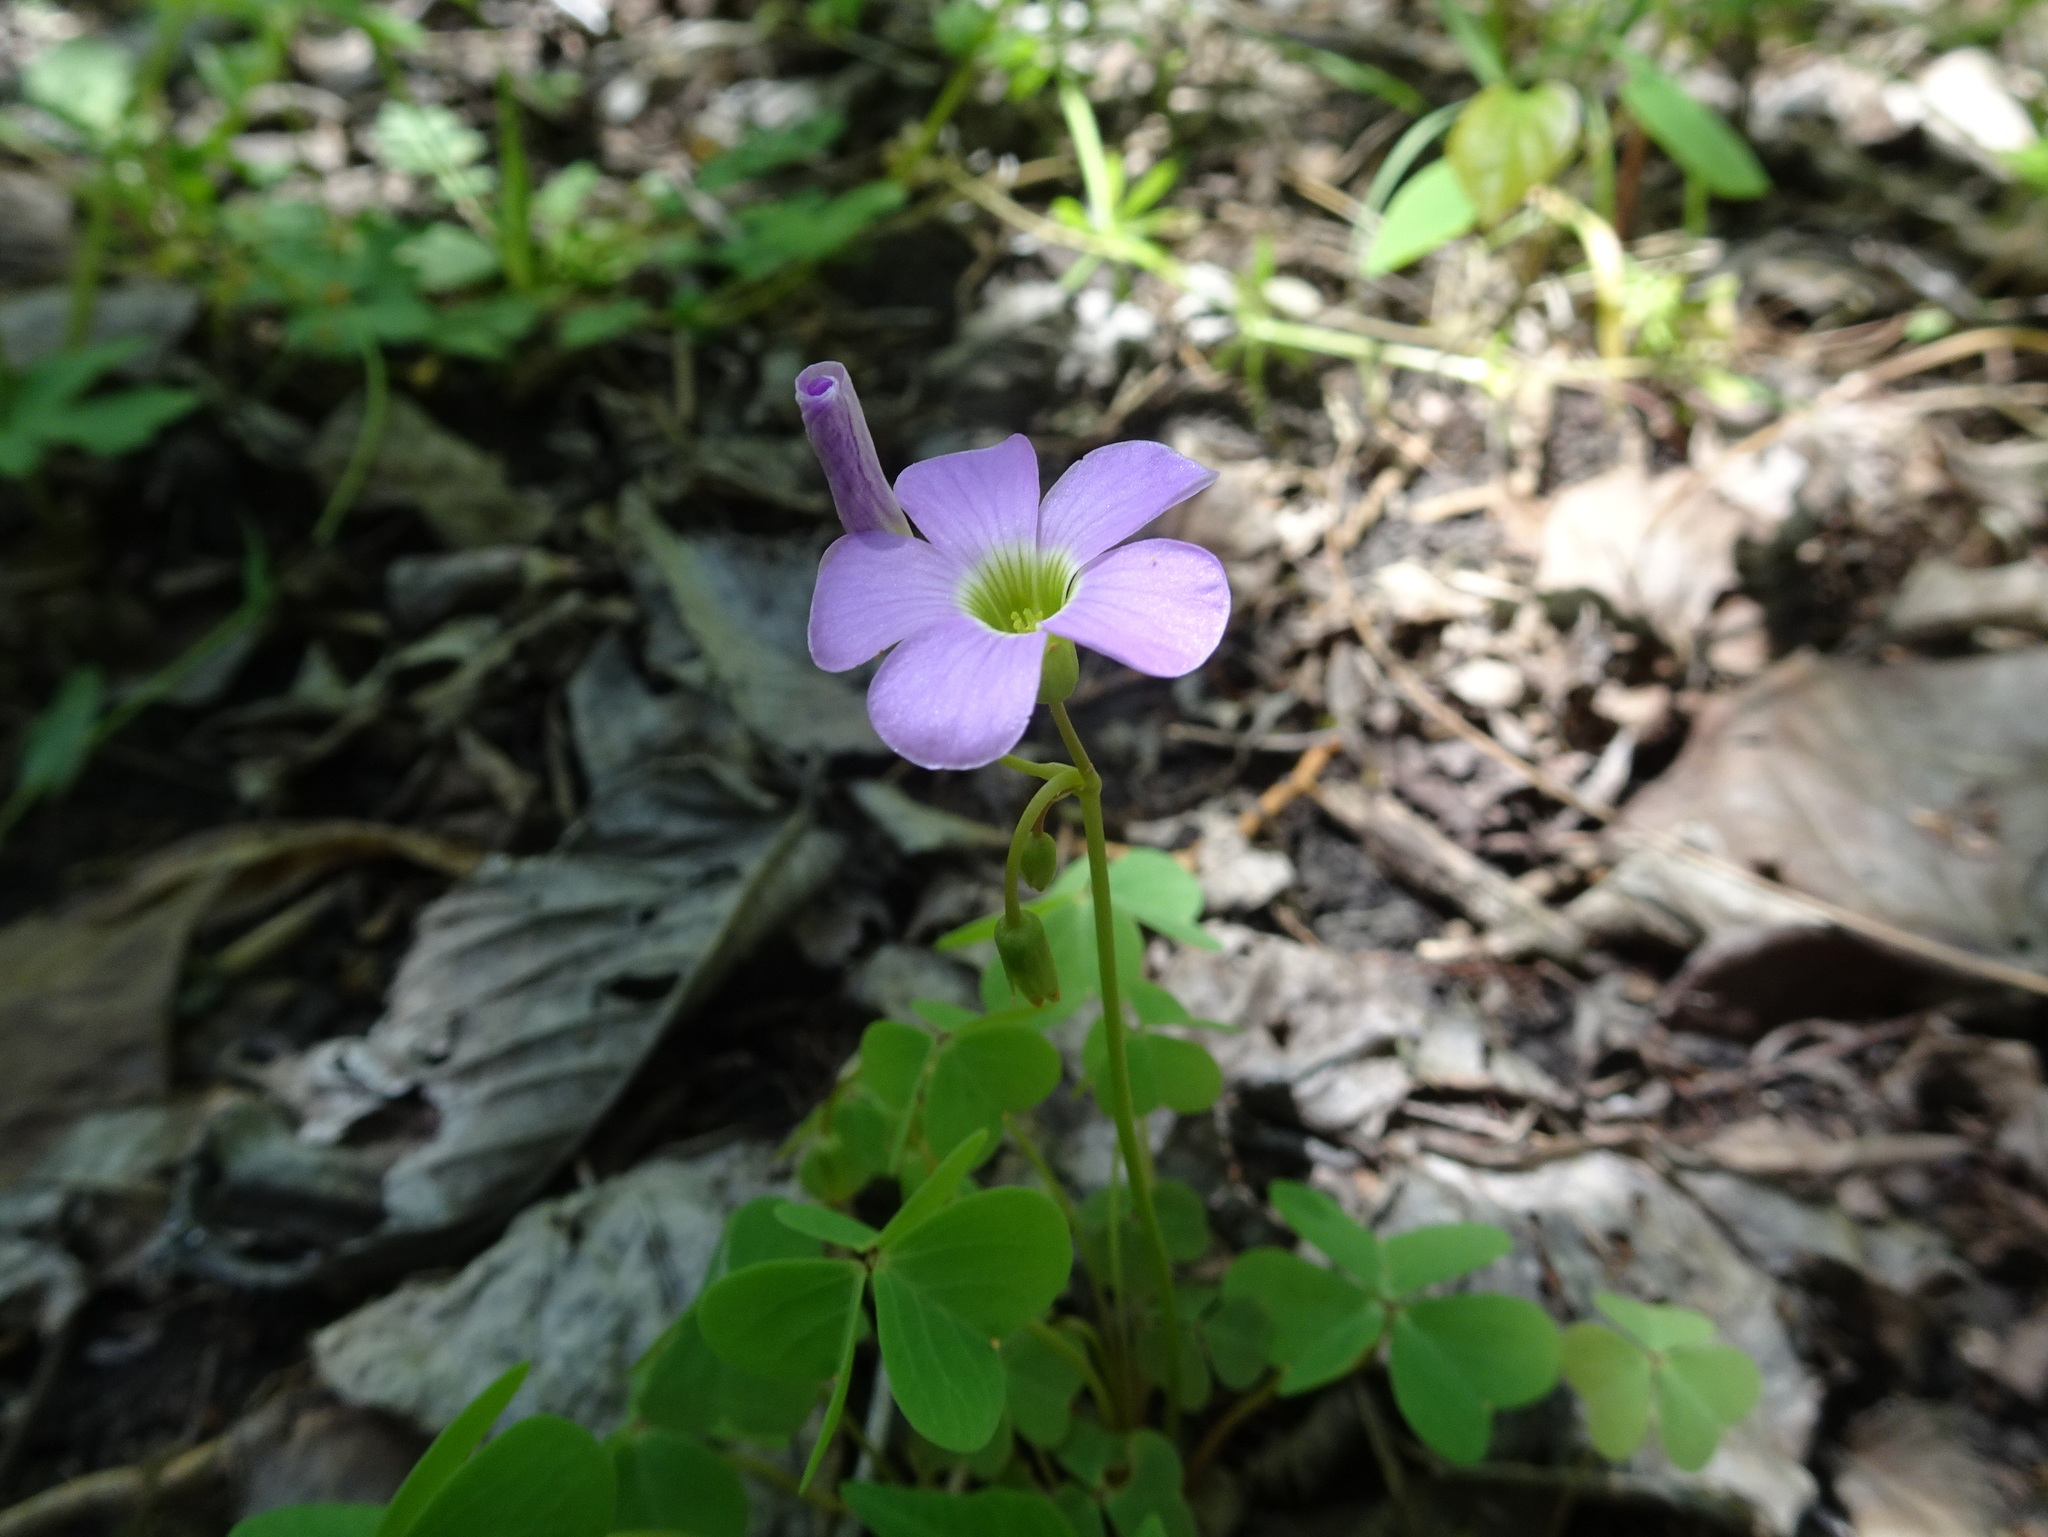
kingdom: Plantae
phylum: Tracheophyta
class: Magnoliopsida
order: Oxalidales
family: Oxalidaceae
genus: Oxalis
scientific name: Oxalis violacea
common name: Violet wood-sorrel
